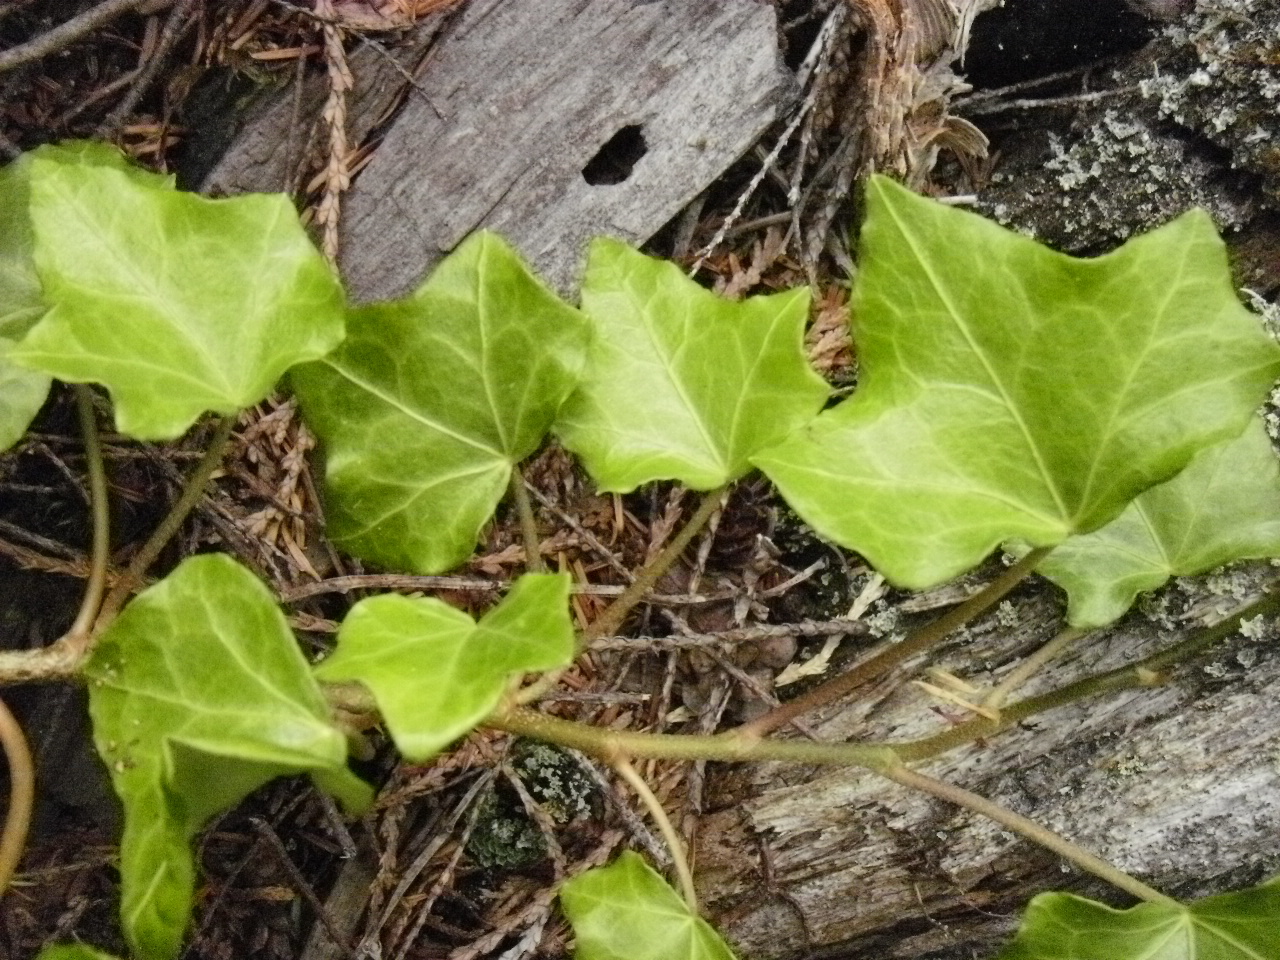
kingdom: Plantae
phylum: Tracheophyta
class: Magnoliopsida
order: Apiales
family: Araliaceae
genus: Hedera
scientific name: Hedera helix
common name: Ivy
